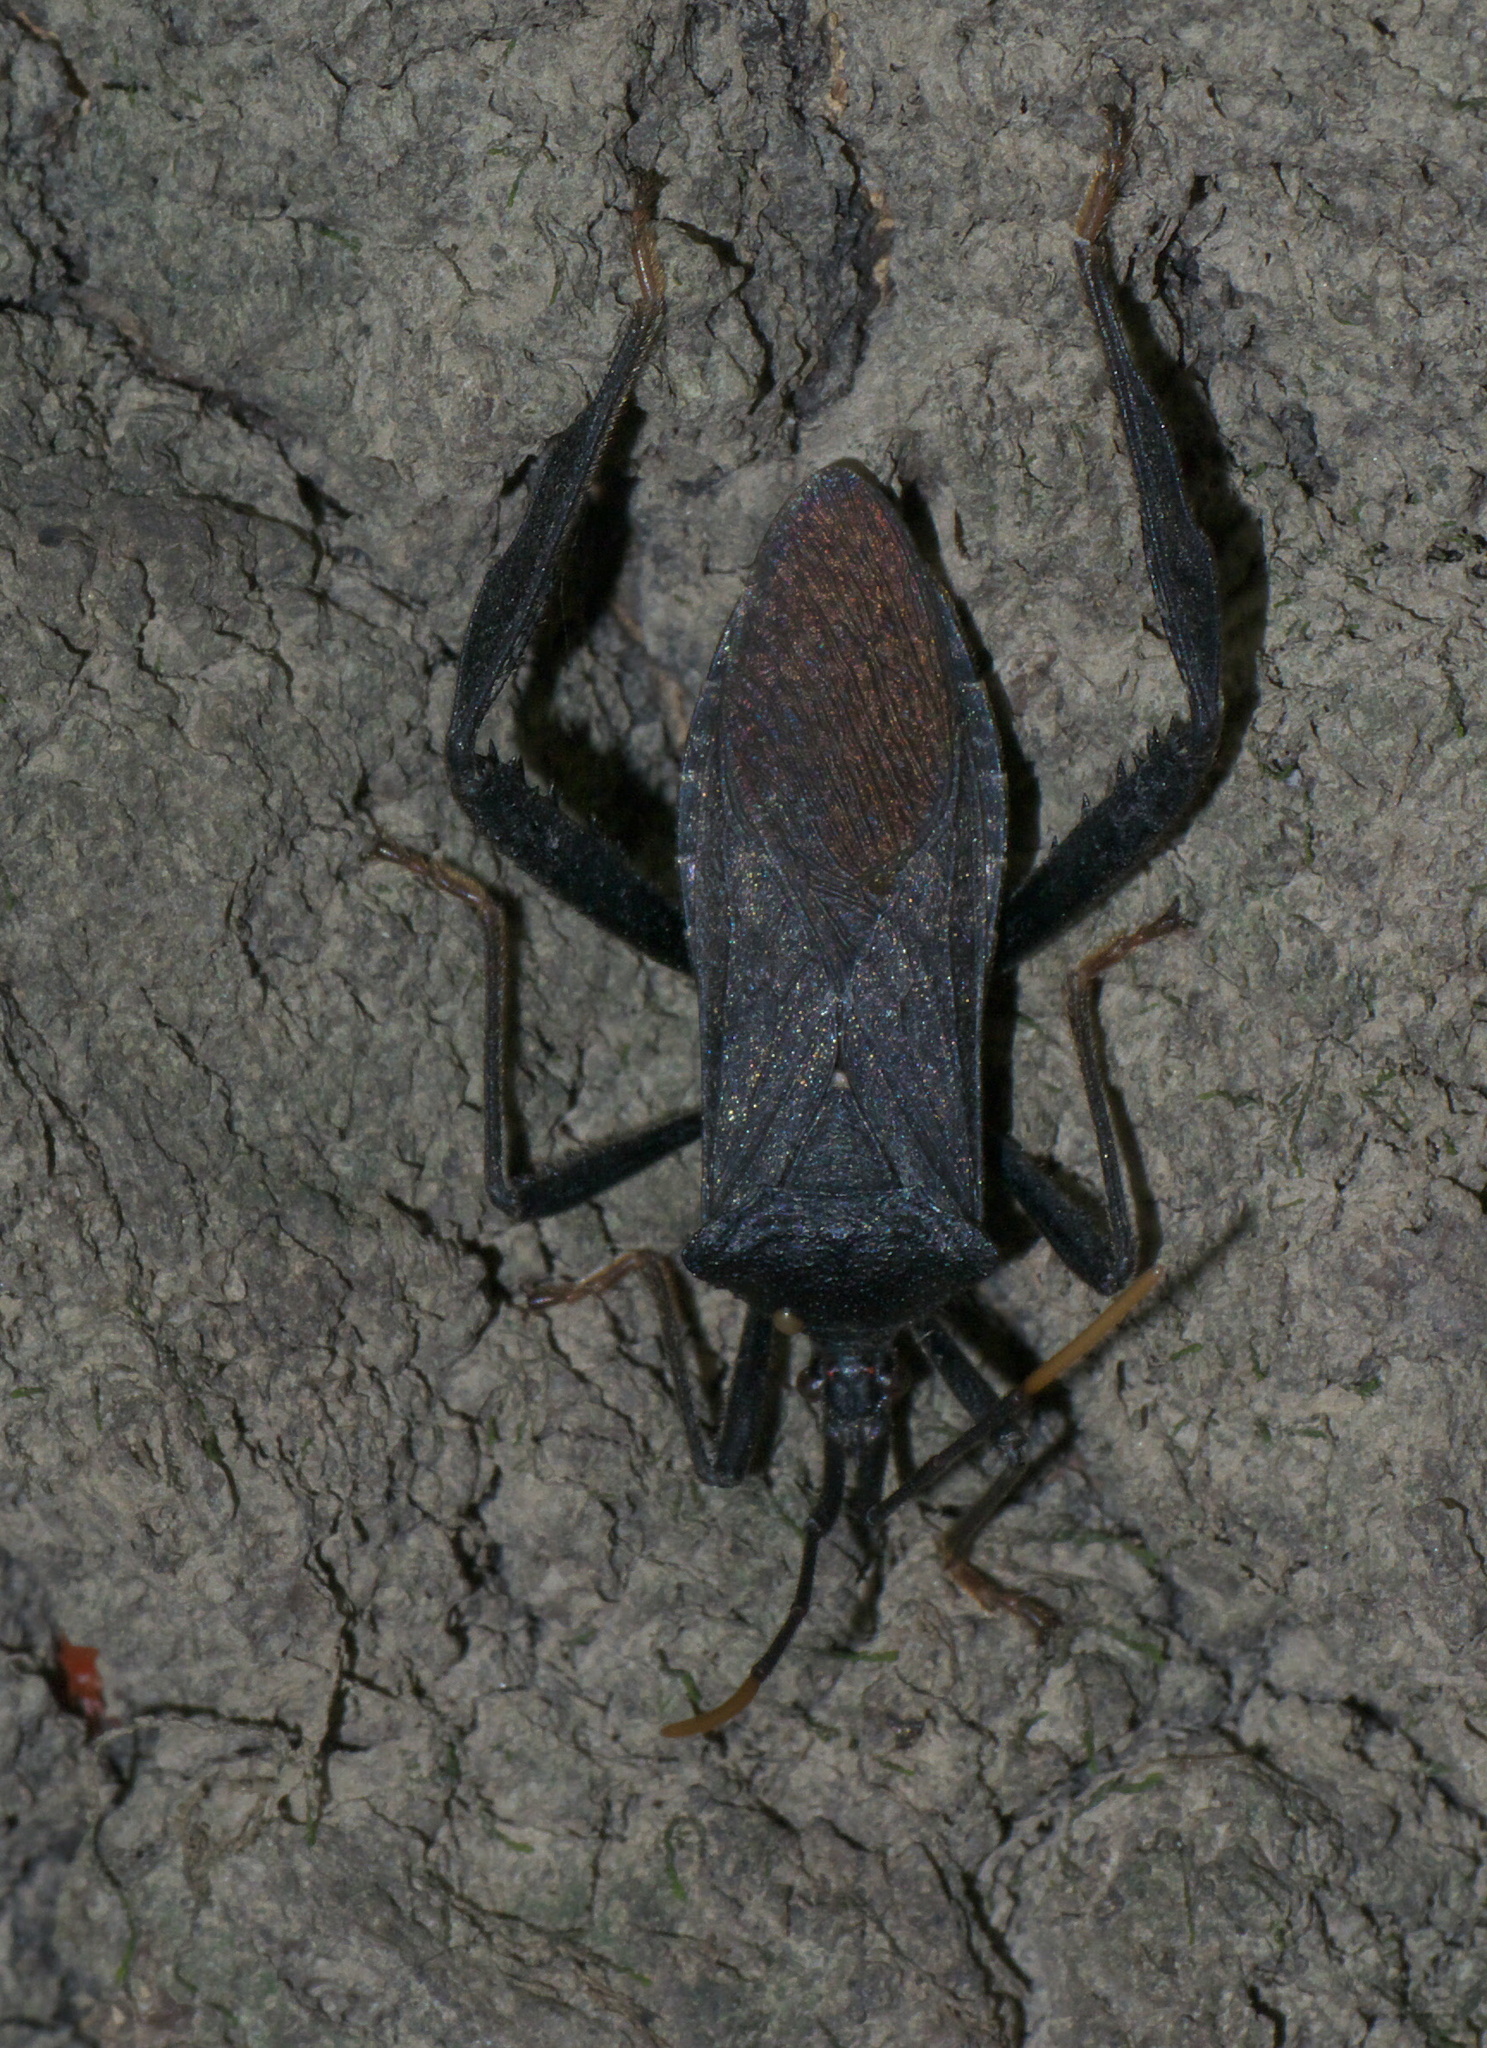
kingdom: Animalia
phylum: Arthropoda
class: Insecta
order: Hemiptera
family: Coreidae
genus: Acanthocephala
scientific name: Acanthocephala terminalis
